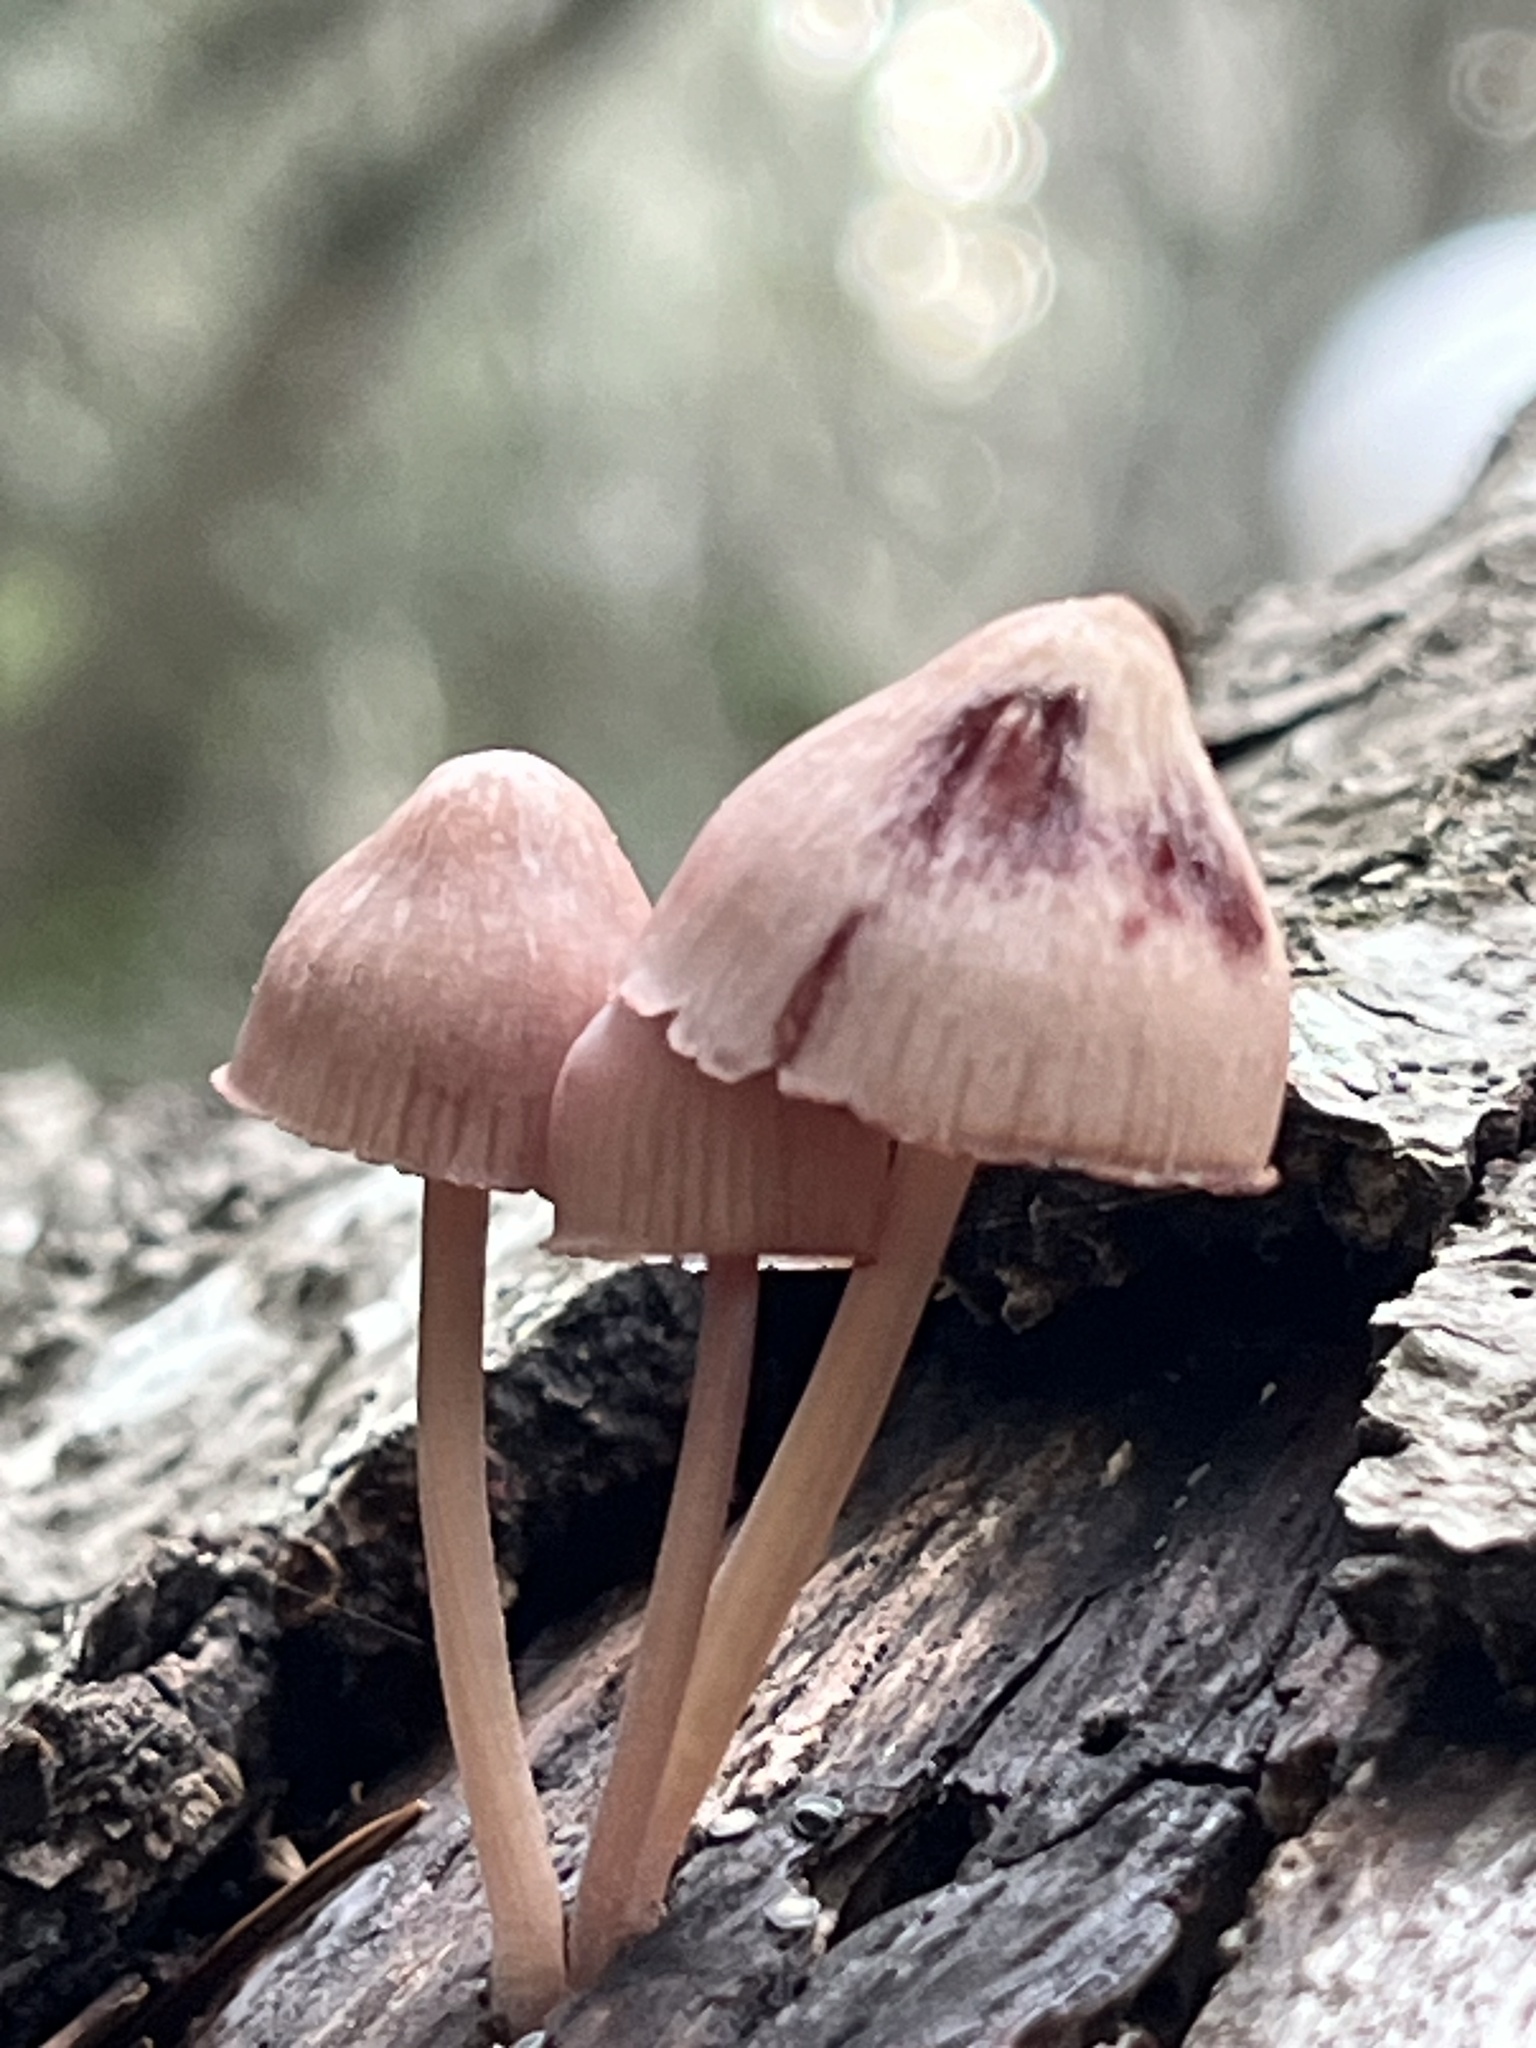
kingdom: Fungi
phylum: Basidiomycota
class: Agaricomycetes
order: Agaricales
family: Mycenaceae
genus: Mycena
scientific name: Mycena haematopus
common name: Burgundydrop bonnet
